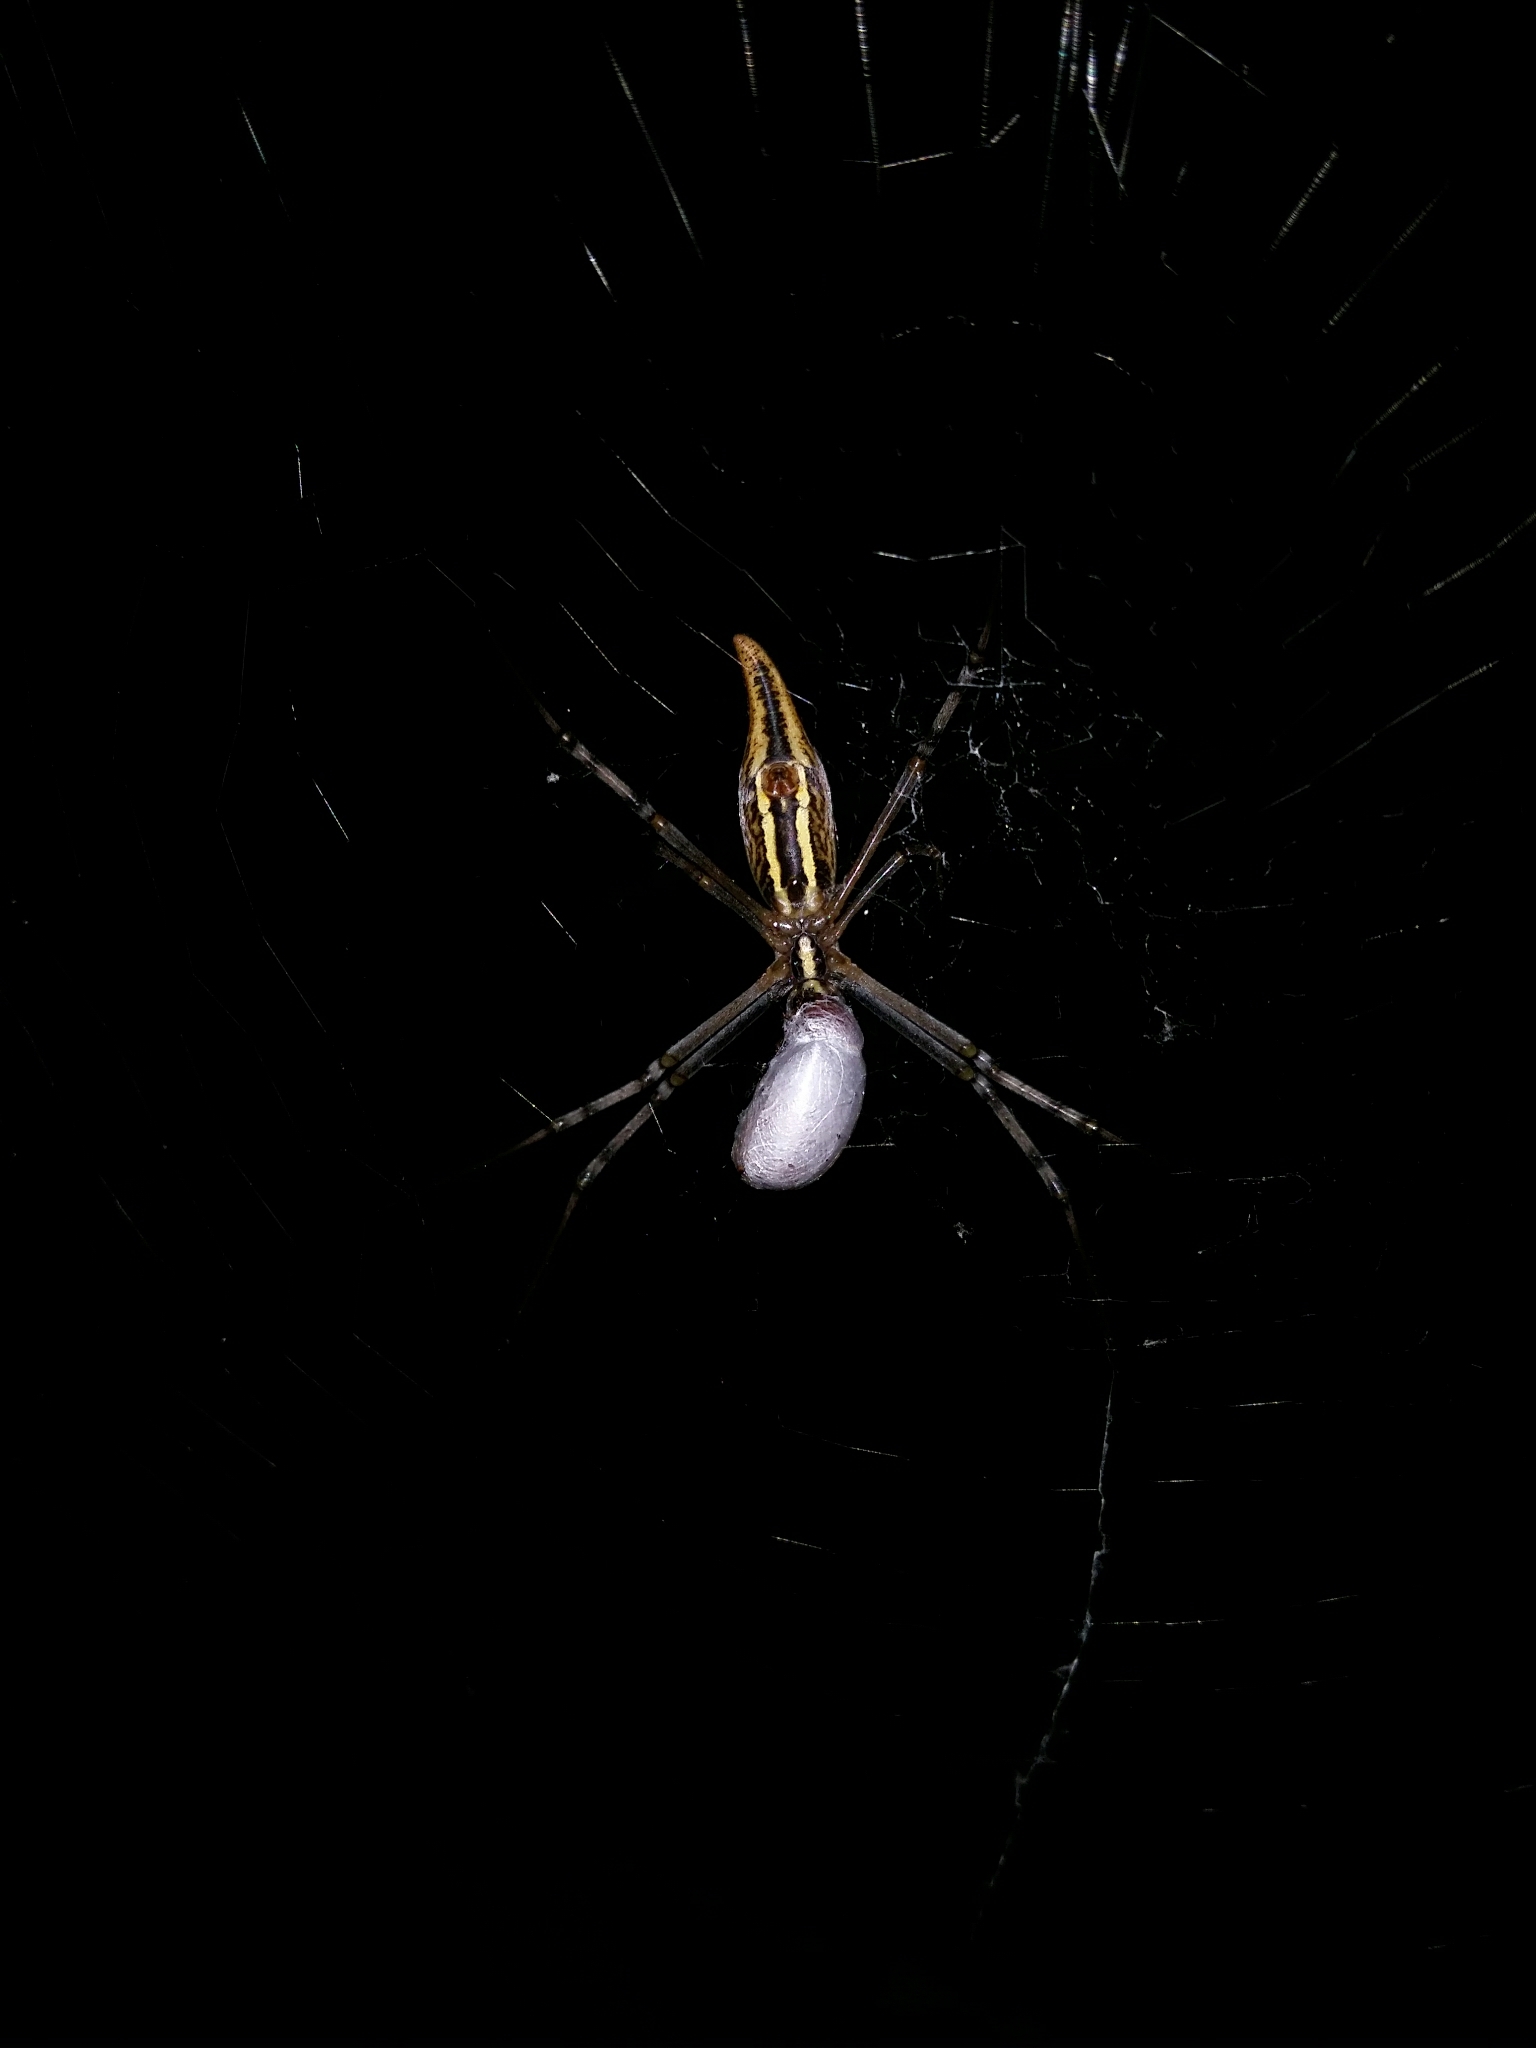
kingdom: Animalia
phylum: Arthropoda
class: Arachnida
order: Araneae
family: Araneidae
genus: Argiope
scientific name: Argiope protensa
